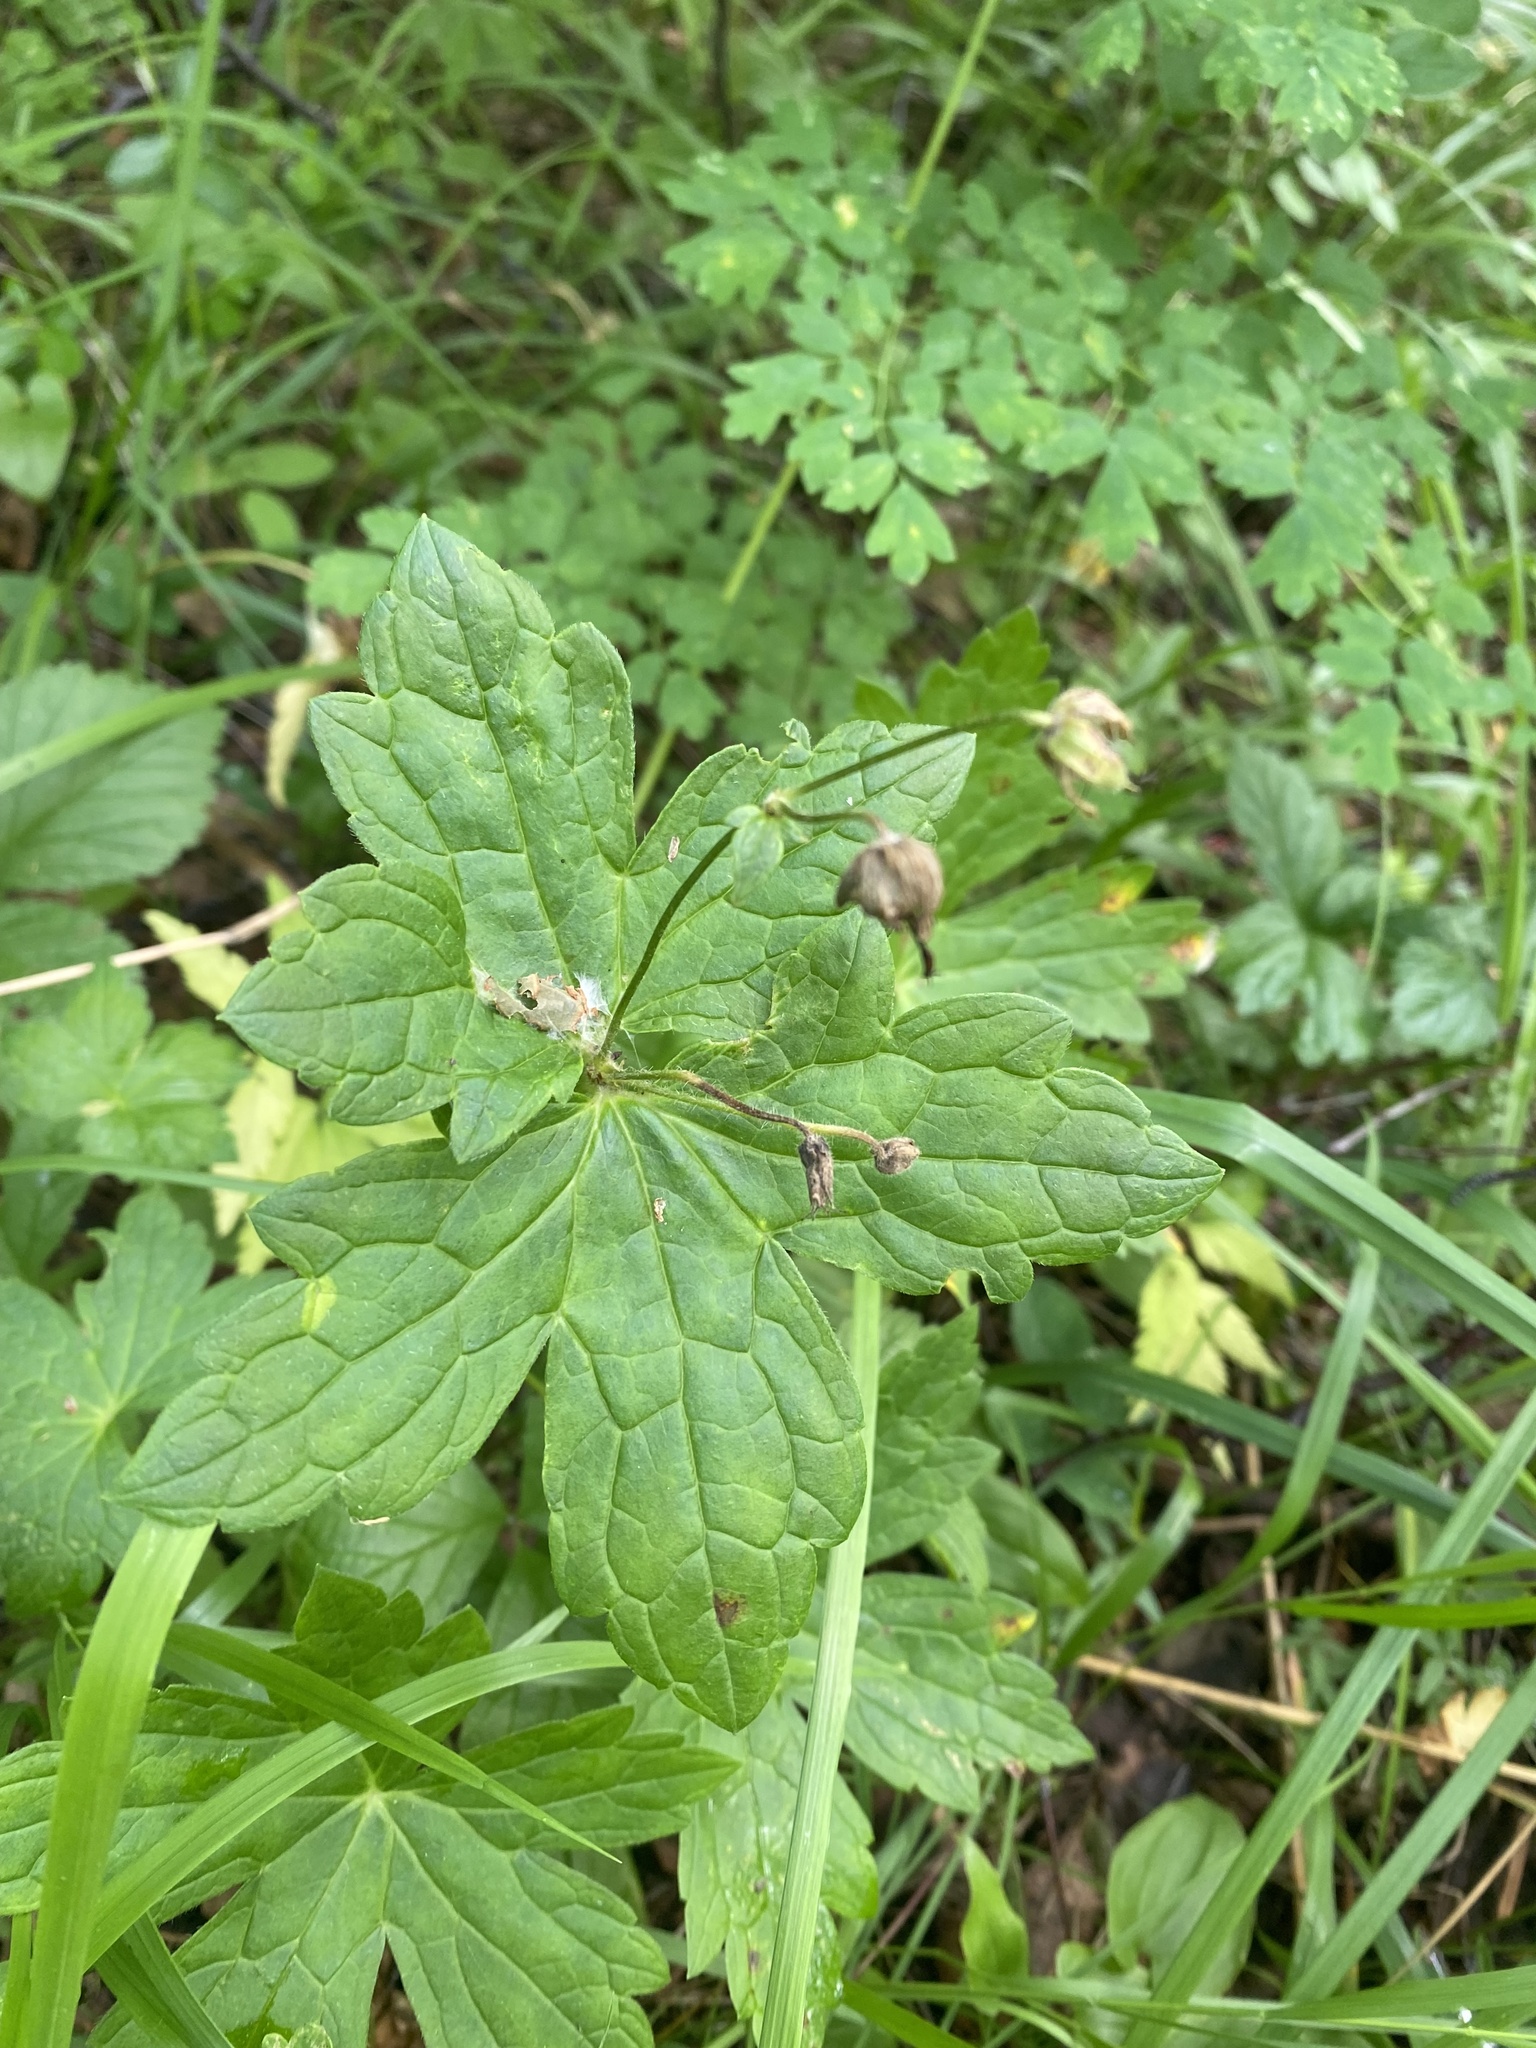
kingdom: Plantae
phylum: Tracheophyta
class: Magnoliopsida
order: Geraniales
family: Geraniaceae
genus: Geranium
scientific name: Geranium platyanthum
